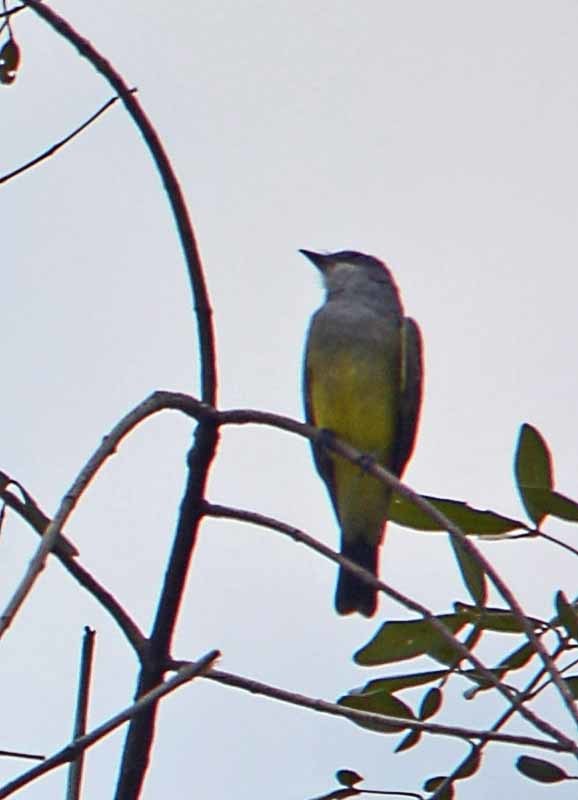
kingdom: Animalia
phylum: Chordata
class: Aves
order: Passeriformes
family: Tyrannidae
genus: Tyrannus
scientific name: Tyrannus vociferans
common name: Cassin's kingbird
